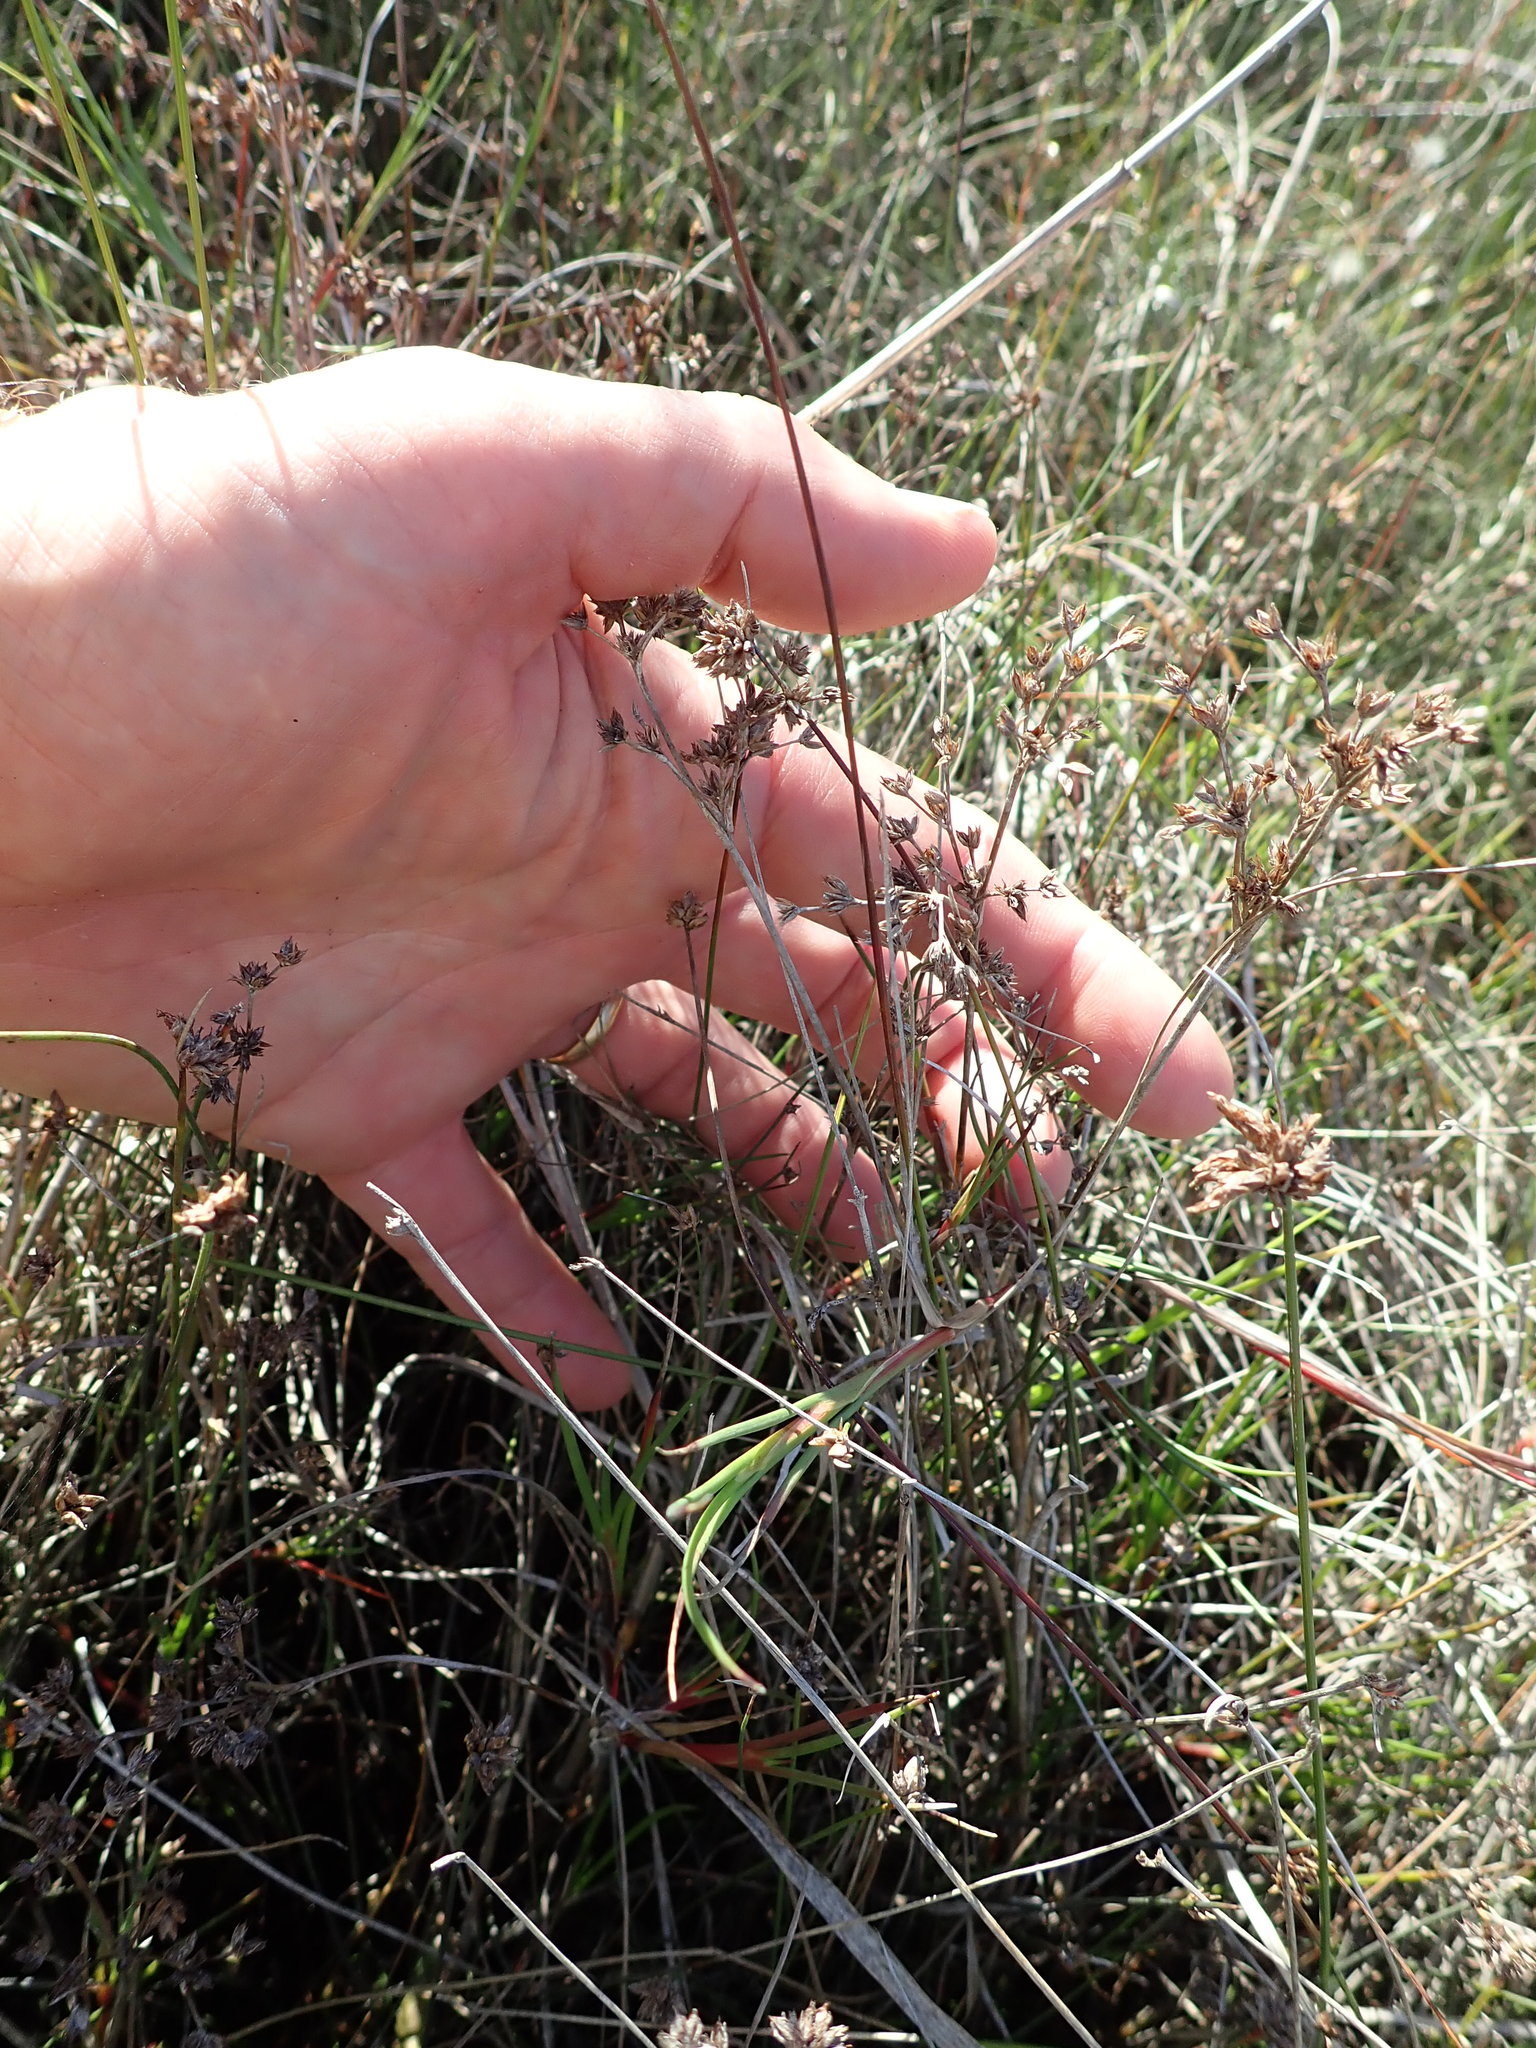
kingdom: Plantae
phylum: Tracheophyta
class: Liliopsida
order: Poales
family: Juncaceae
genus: Juncus
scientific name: Juncus articulatus
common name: Jointed rush
